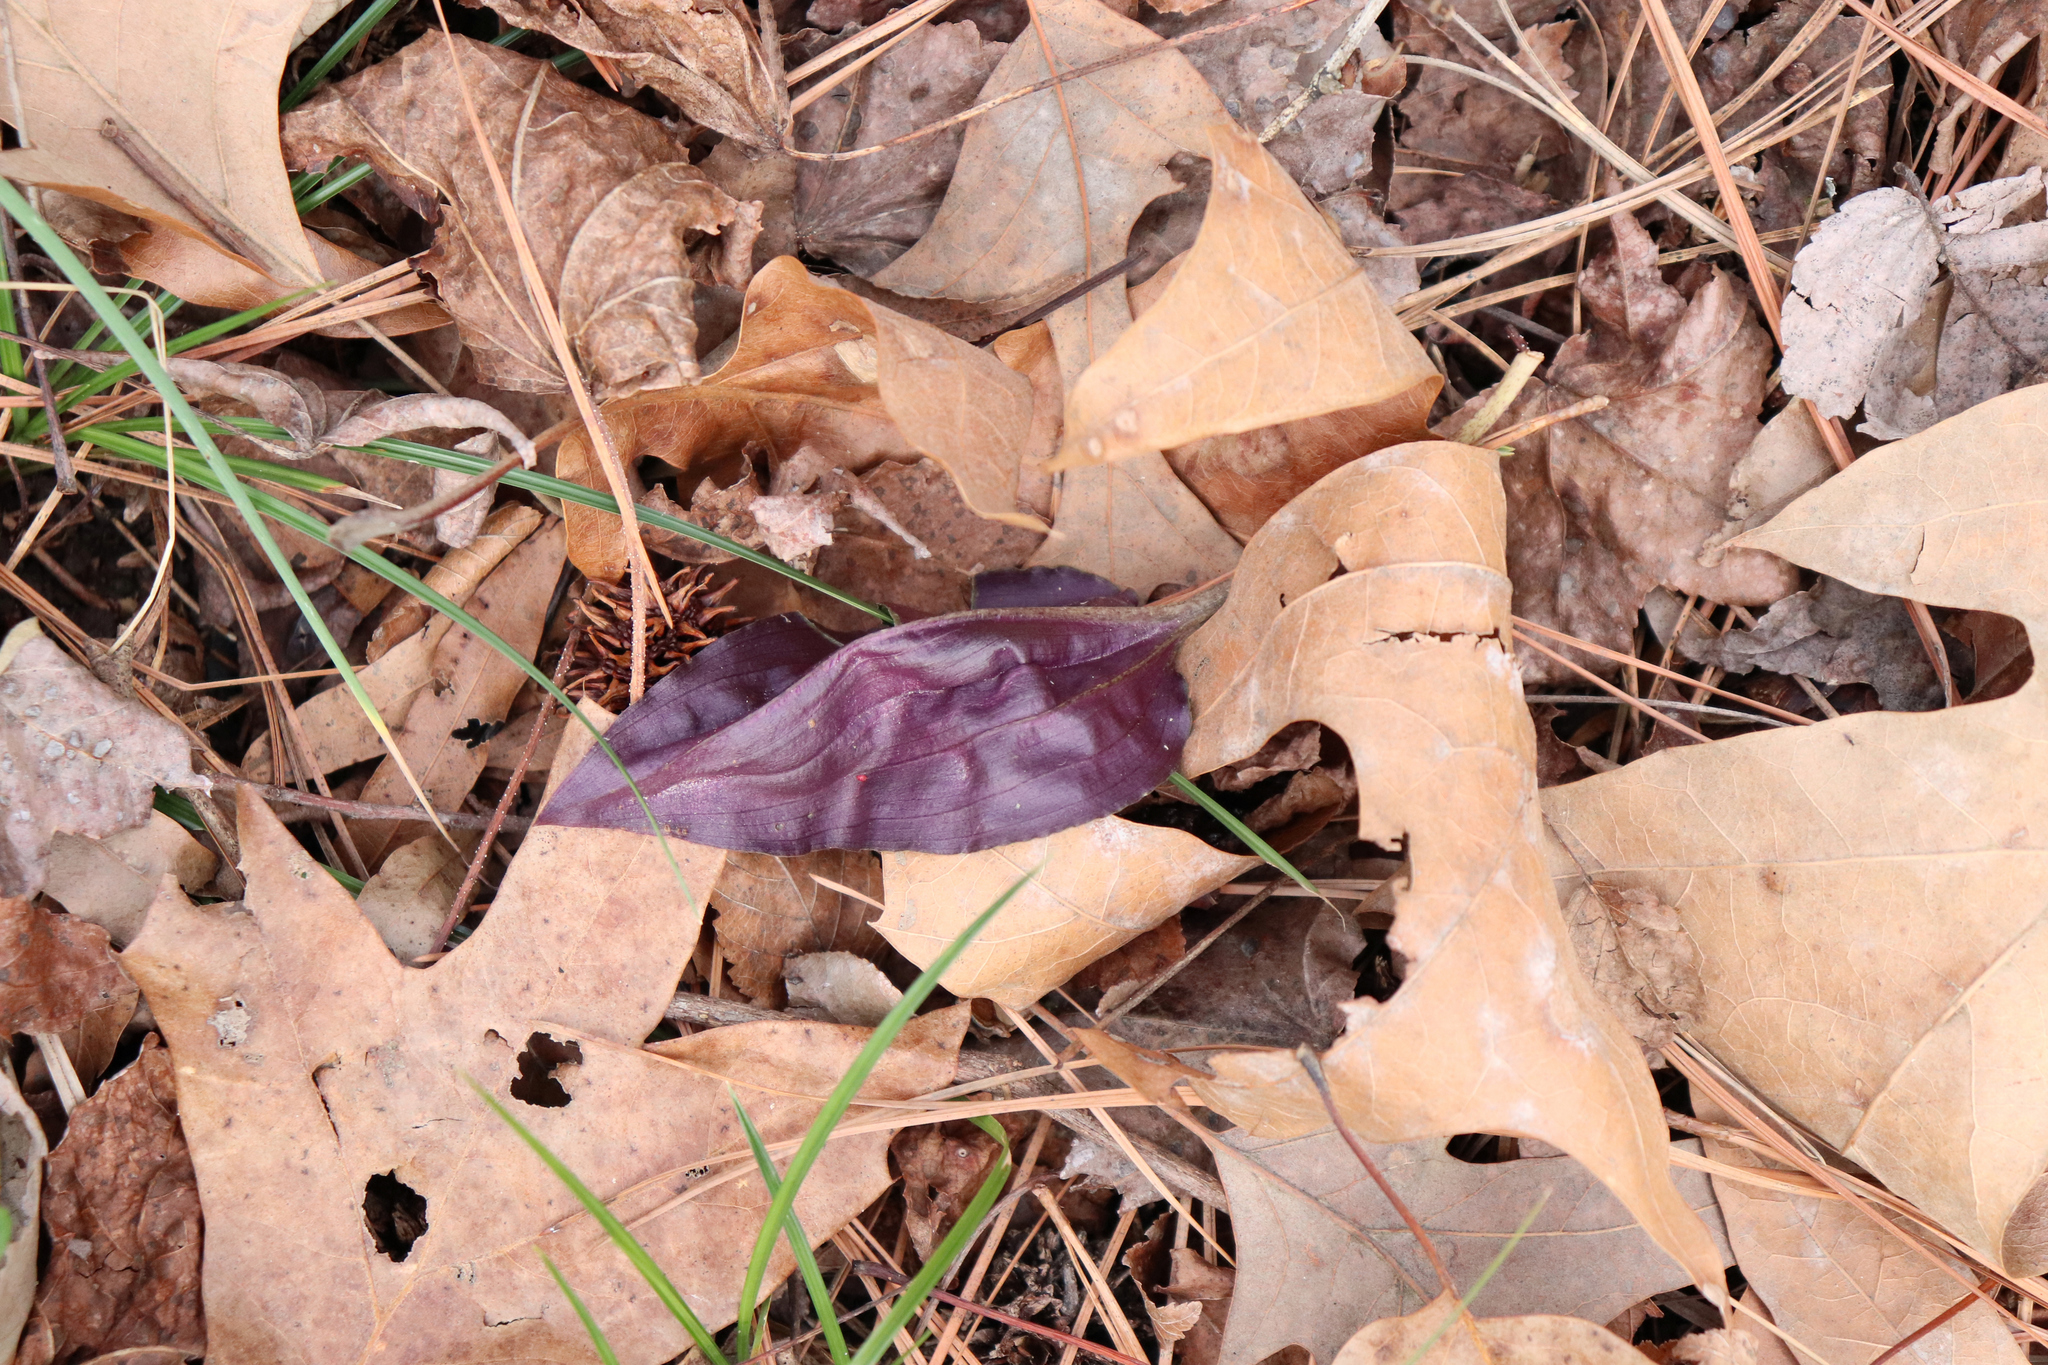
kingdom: Plantae
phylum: Tracheophyta
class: Liliopsida
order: Asparagales
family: Orchidaceae
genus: Tipularia
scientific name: Tipularia discolor
